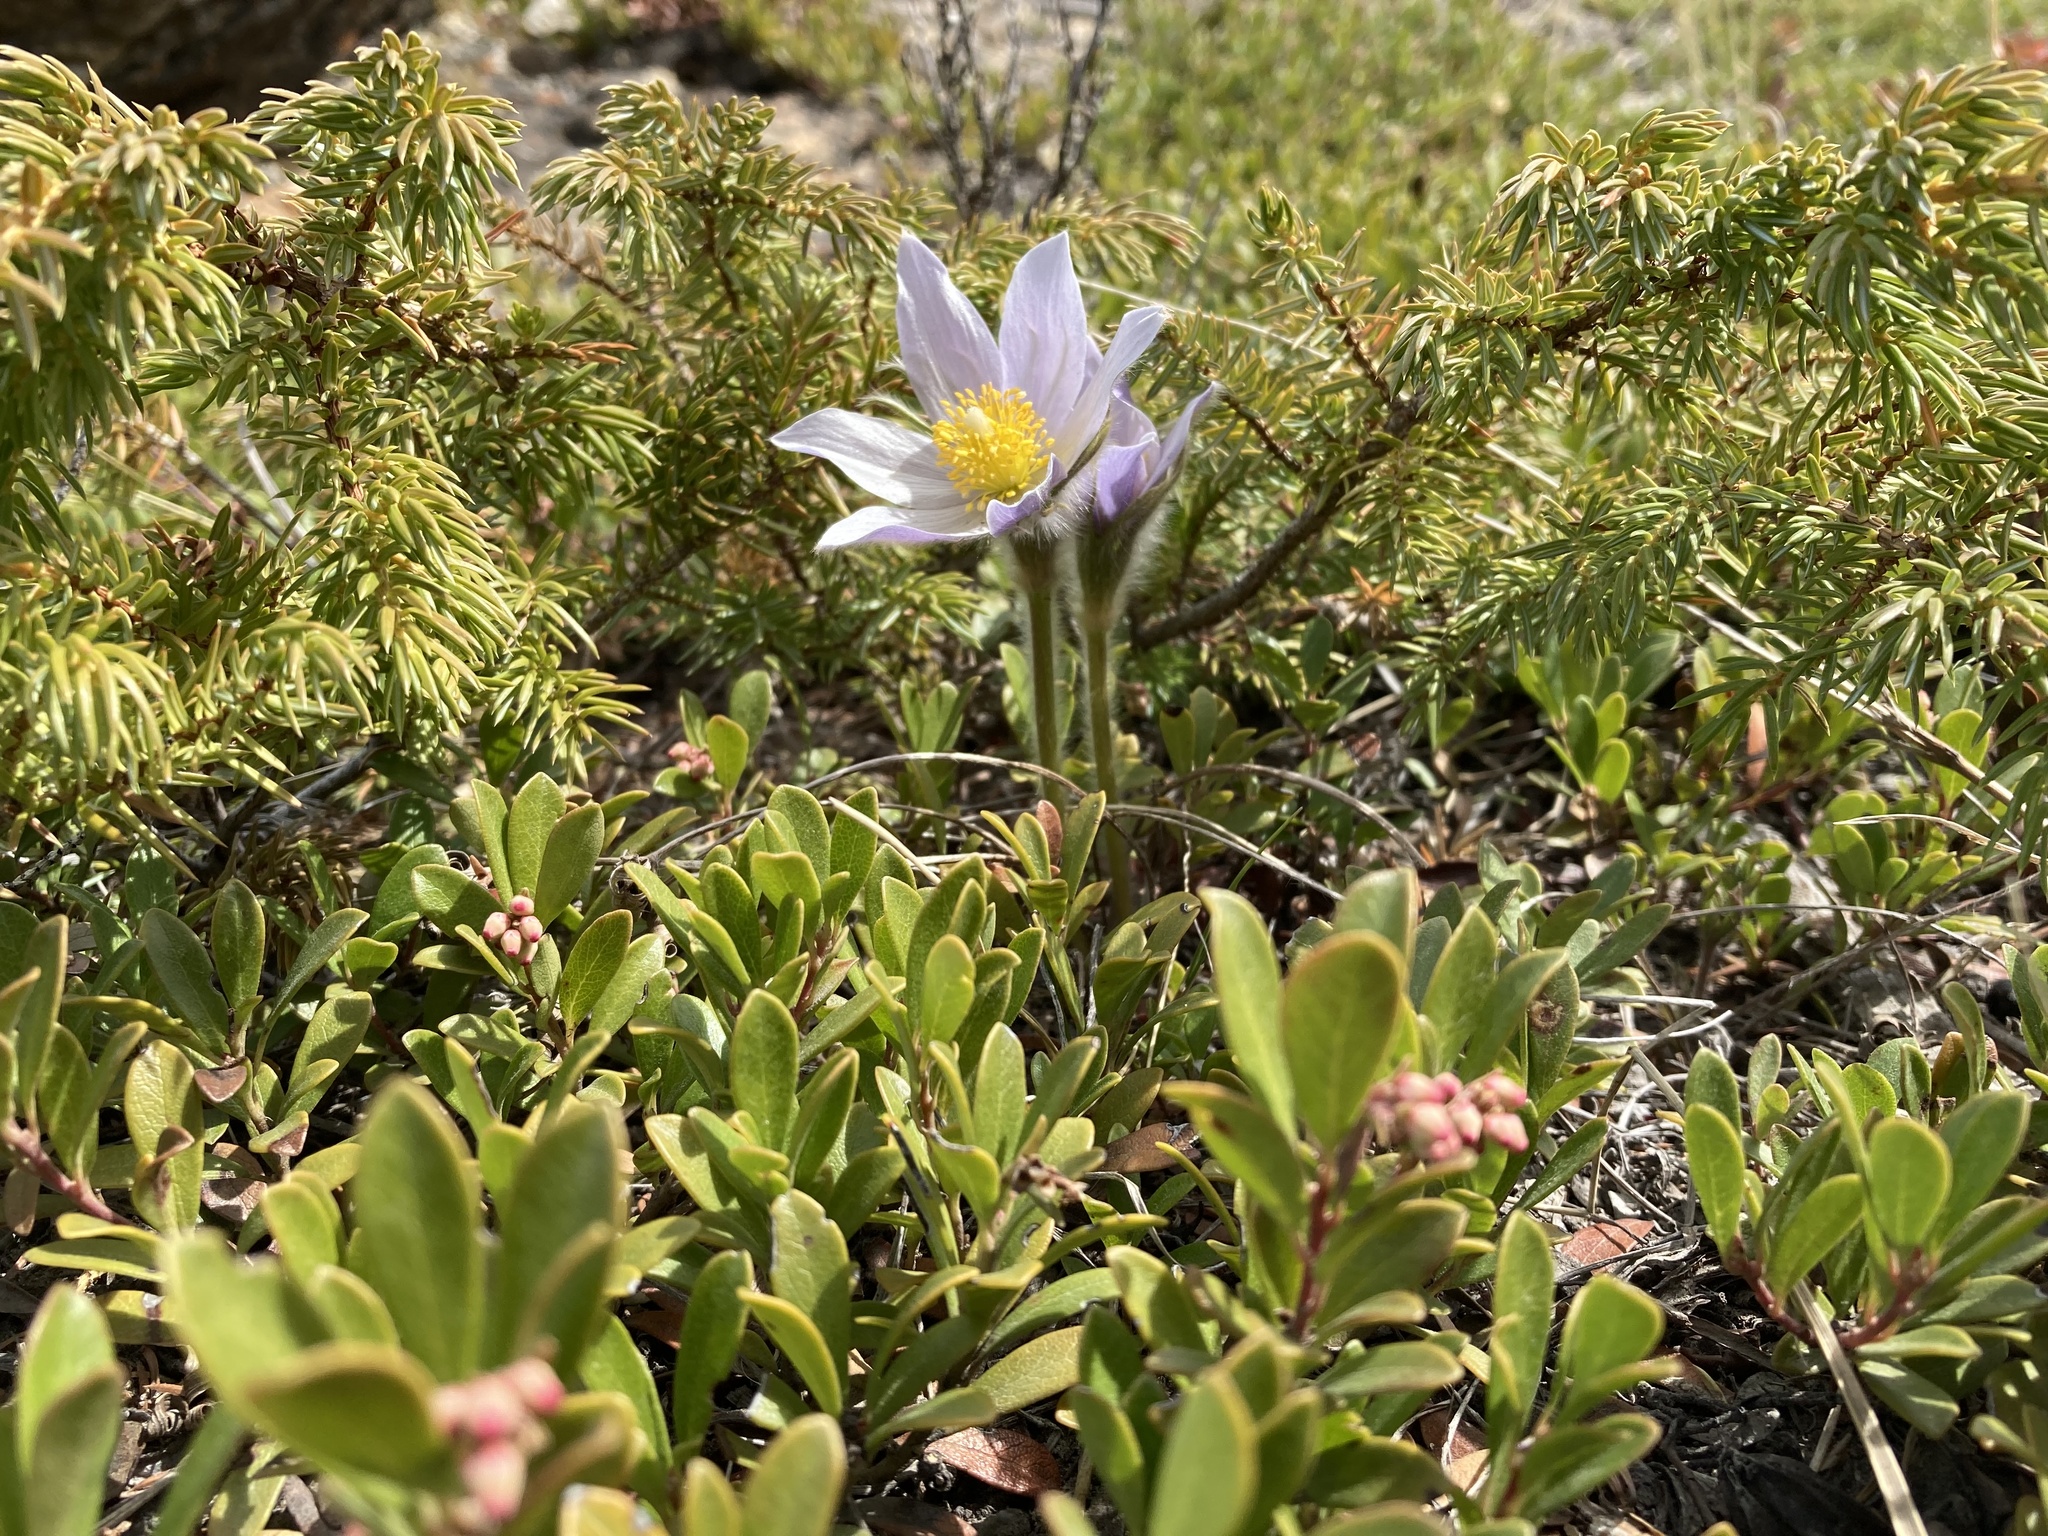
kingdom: Plantae
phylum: Tracheophyta
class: Magnoliopsida
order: Ranunculales
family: Ranunculaceae
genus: Pulsatilla
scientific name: Pulsatilla nuttalliana
